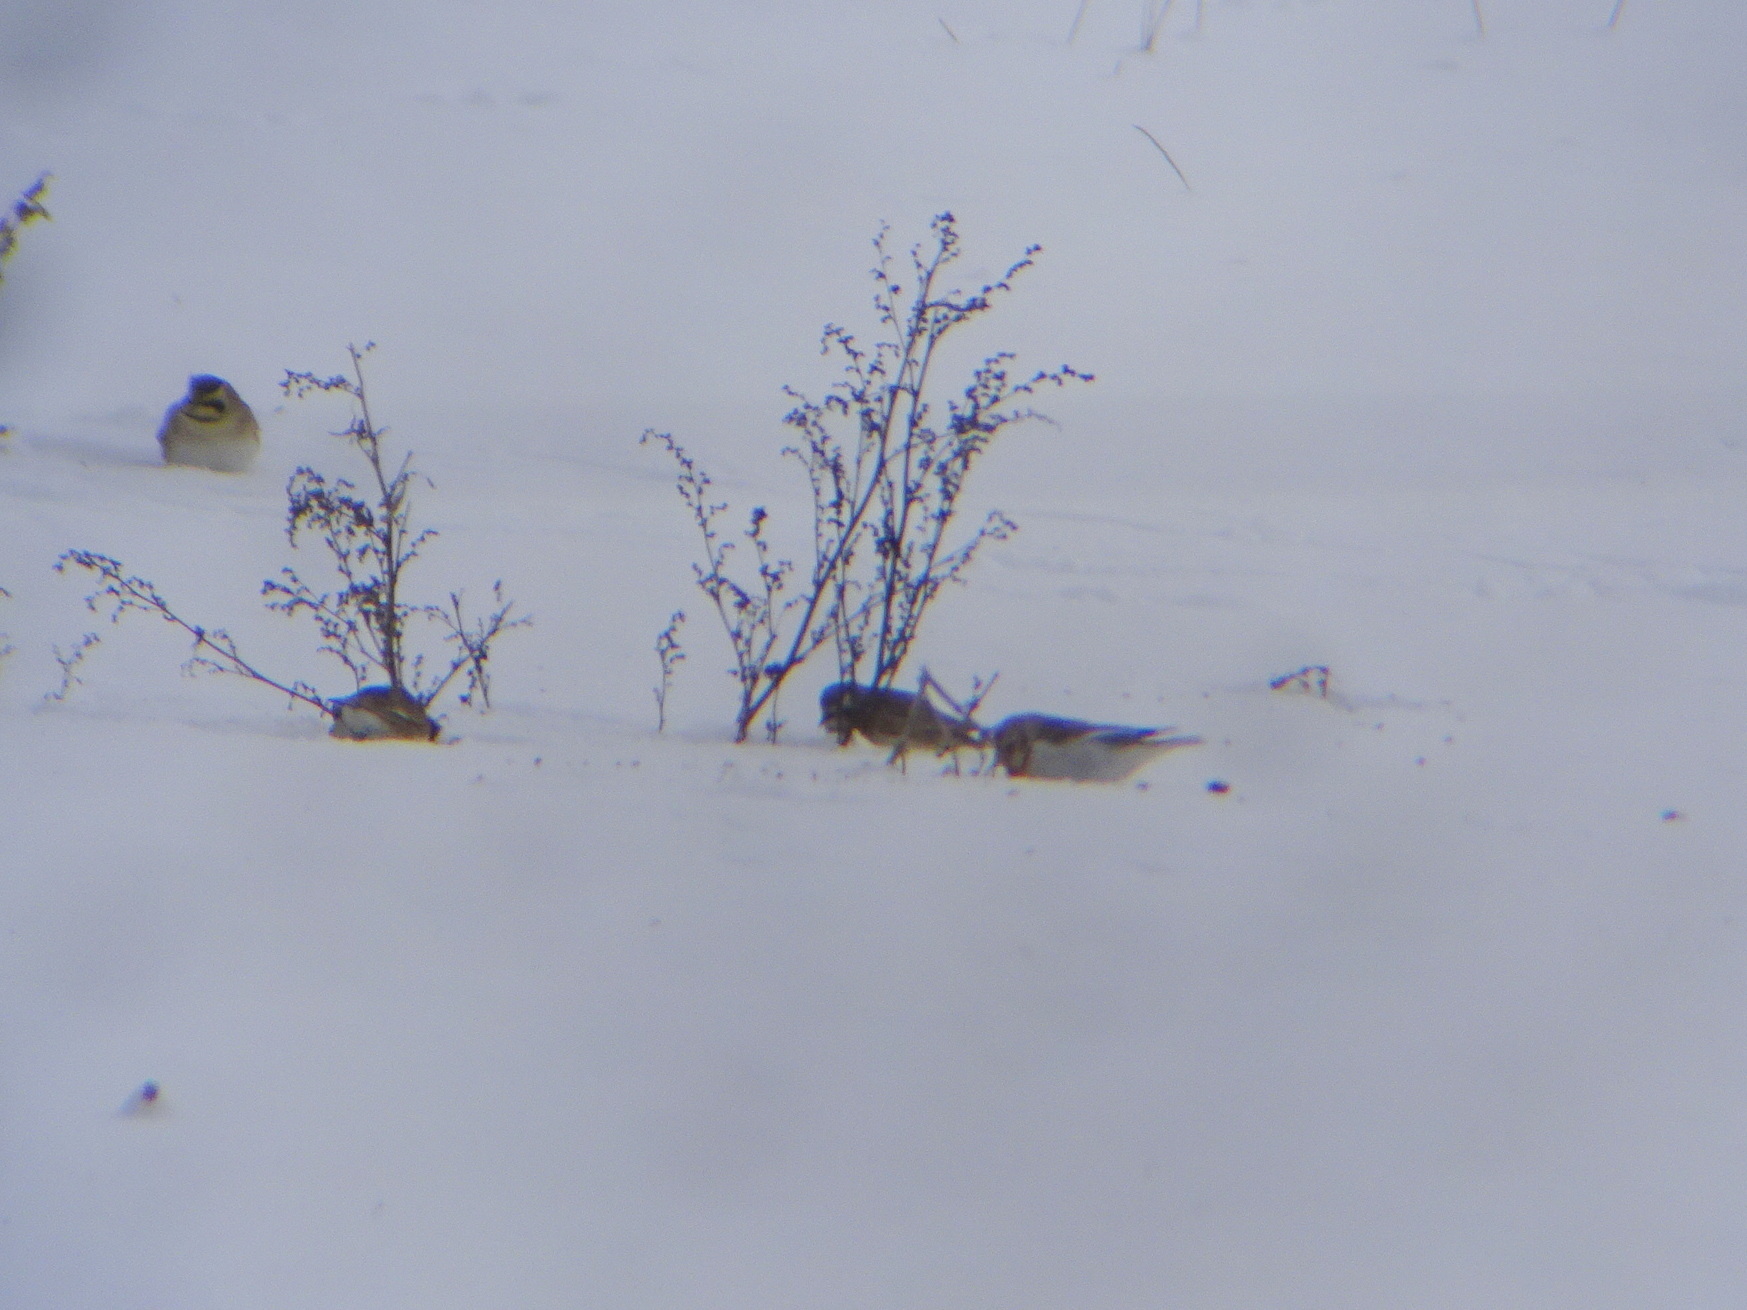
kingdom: Animalia
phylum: Chordata
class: Aves
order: Passeriformes
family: Calcariidae
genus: Plectrophenax
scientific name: Plectrophenax nivalis
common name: Snow bunting
